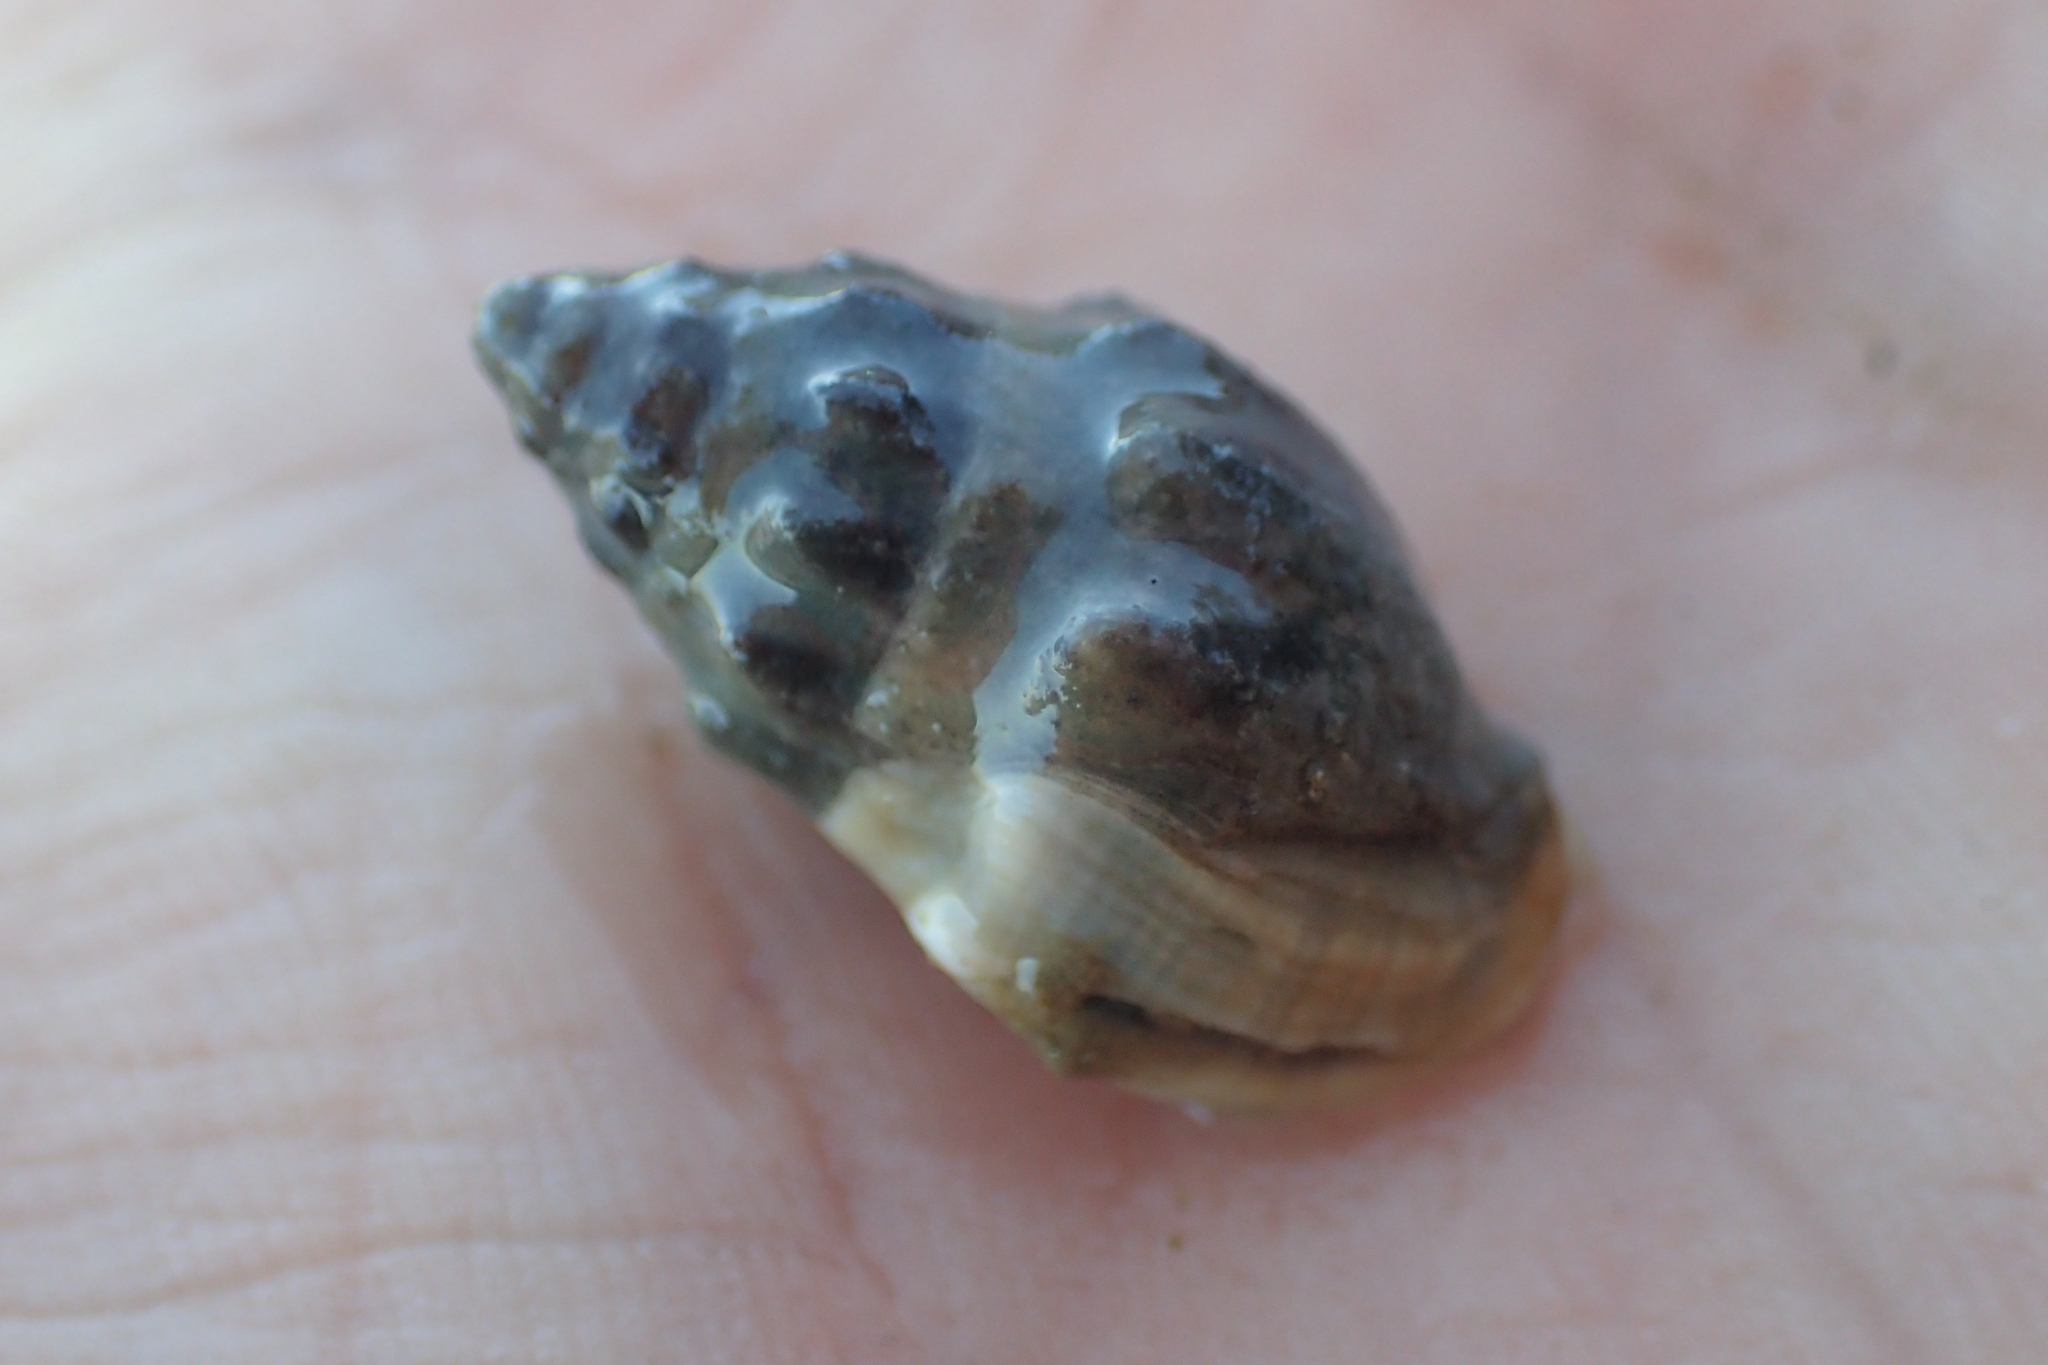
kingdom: Animalia
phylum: Mollusca
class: Gastropoda
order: Neogastropoda
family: Cominellidae
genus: Cominella
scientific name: Cominella glandiformis
